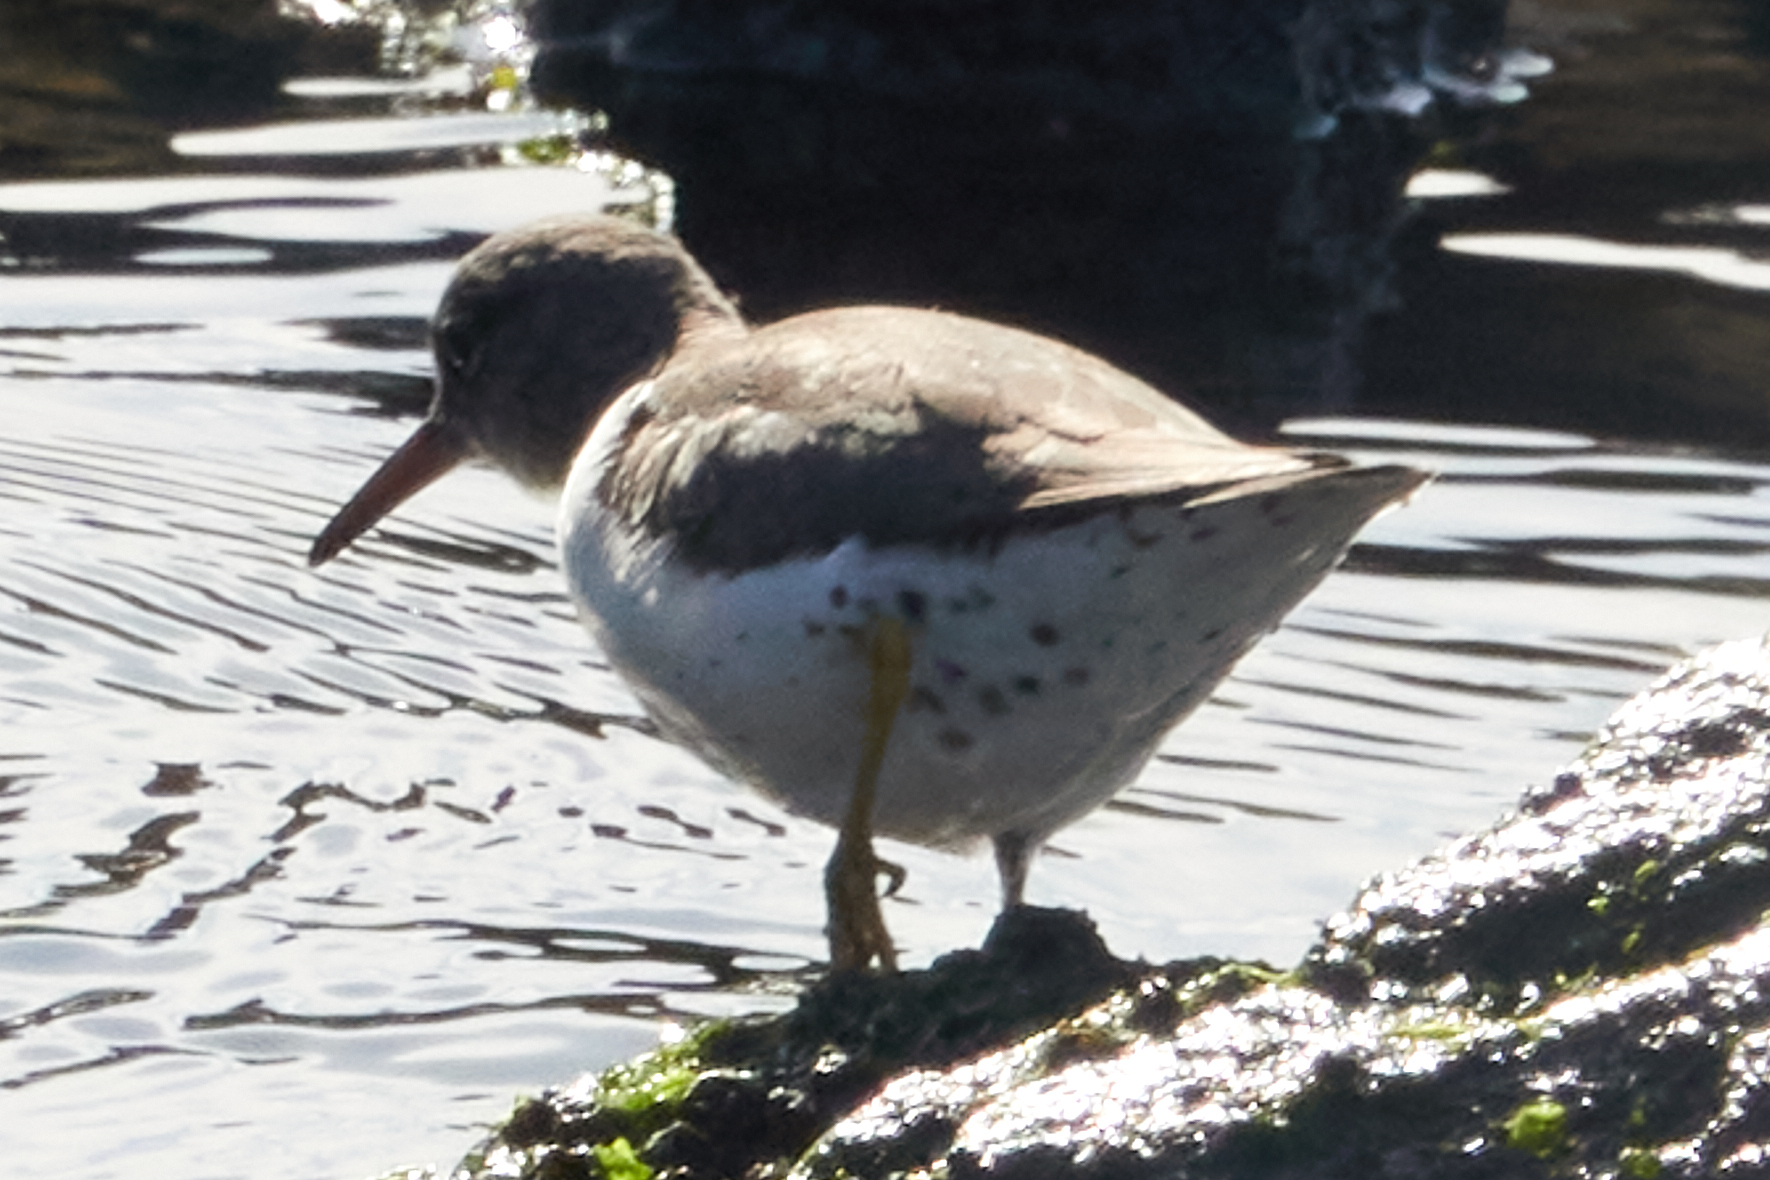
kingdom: Animalia
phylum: Chordata
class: Aves
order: Charadriiformes
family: Scolopacidae
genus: Actitis
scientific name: Actitis macularius
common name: Spotted sandpiper
